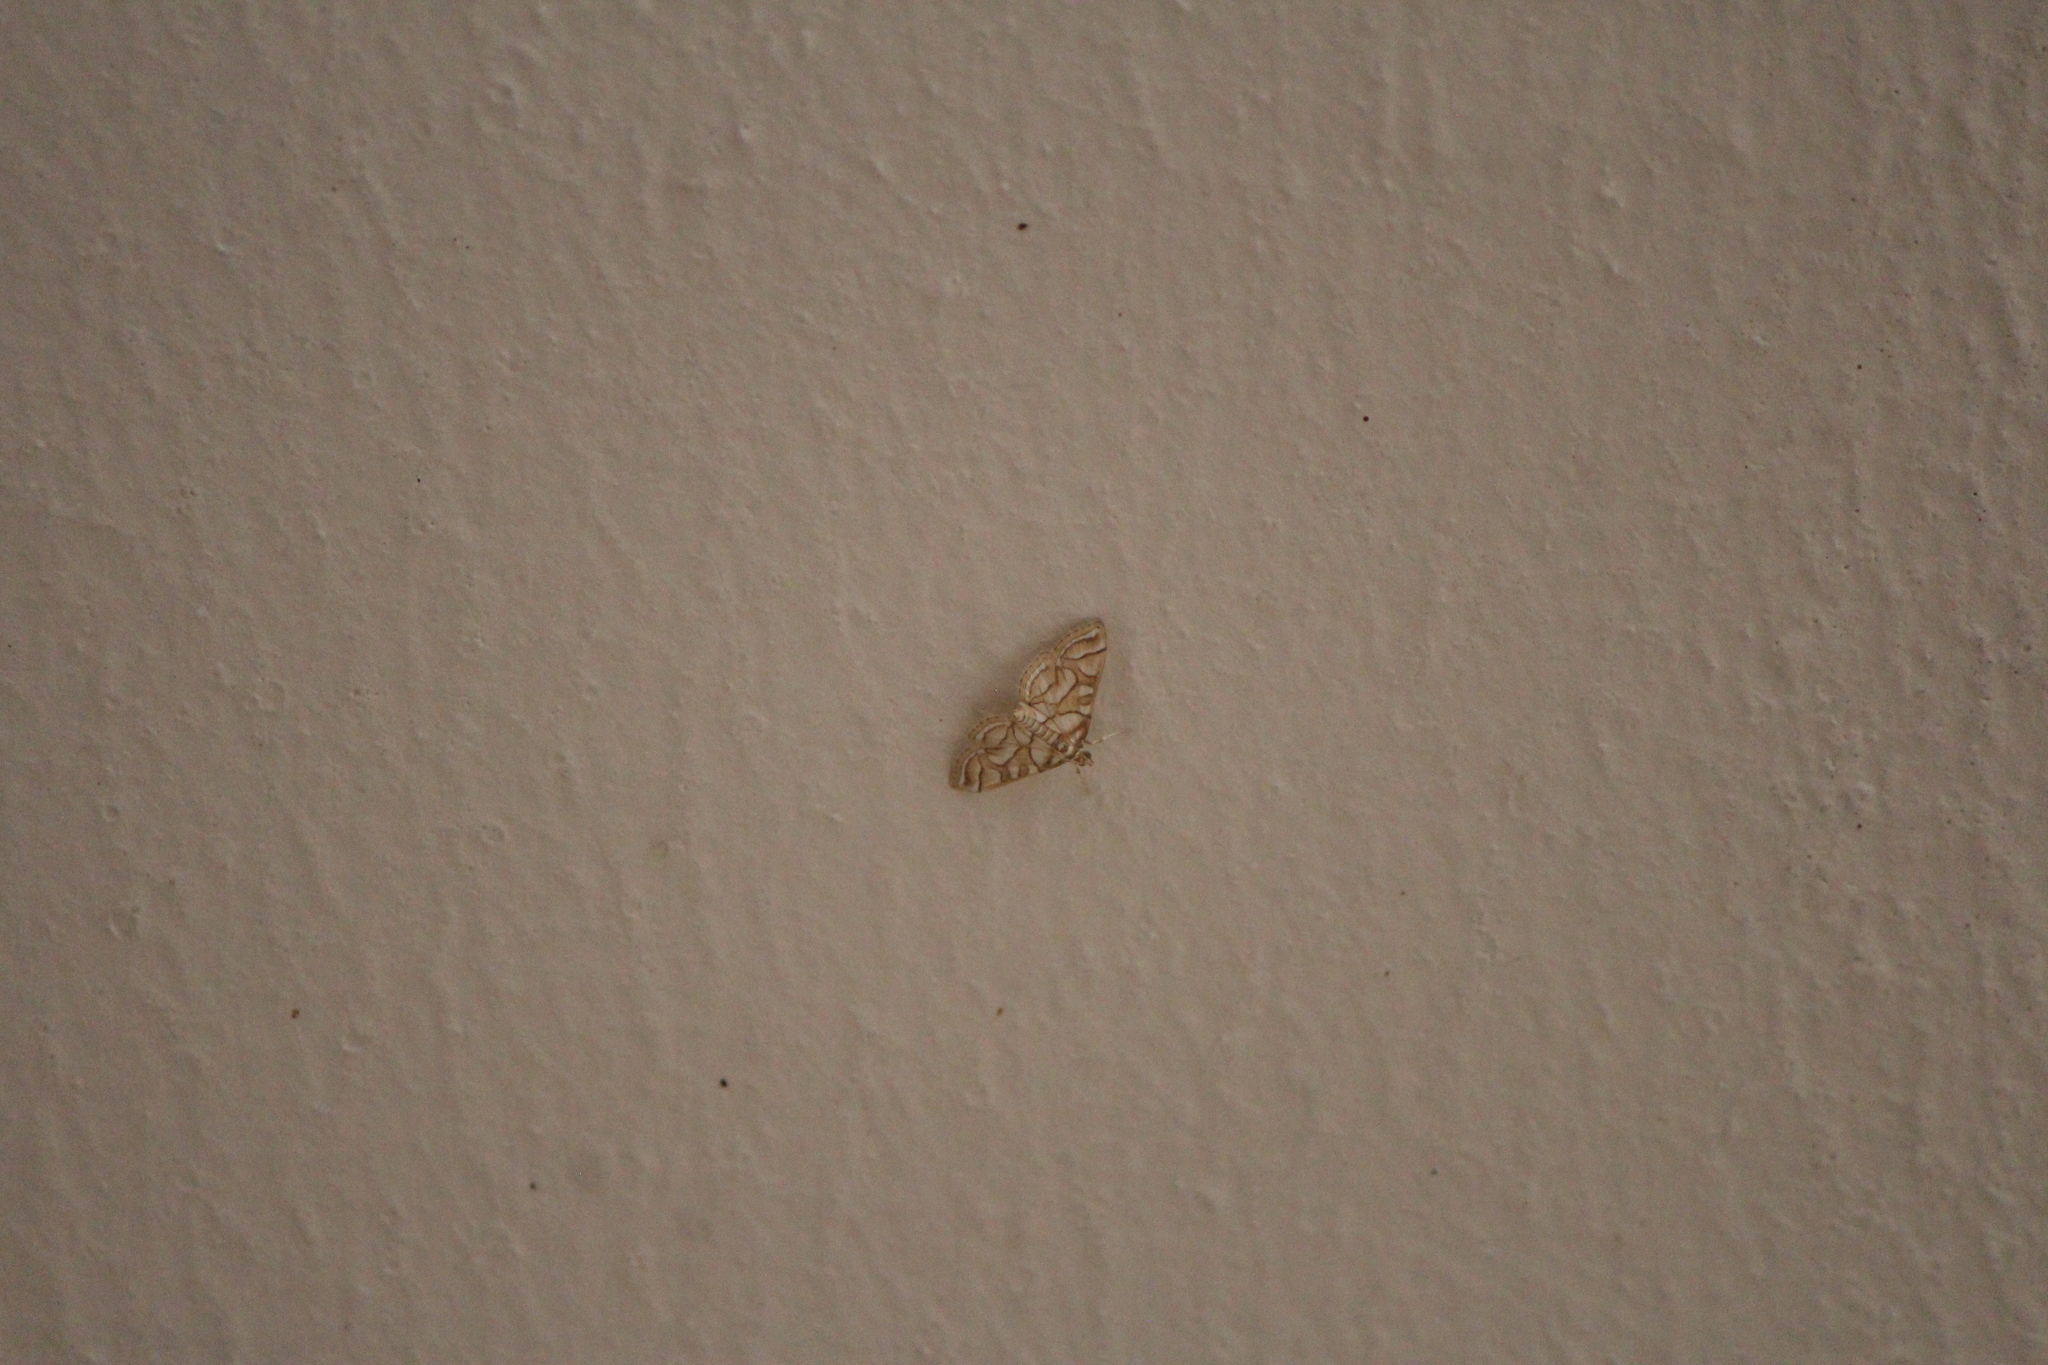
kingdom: Animalia
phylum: Arthropoda
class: Insecta
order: Lepidoptera
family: Crambidae
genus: Pseudopyrausta
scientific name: Pseudopyrausta santatalis
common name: Moth
